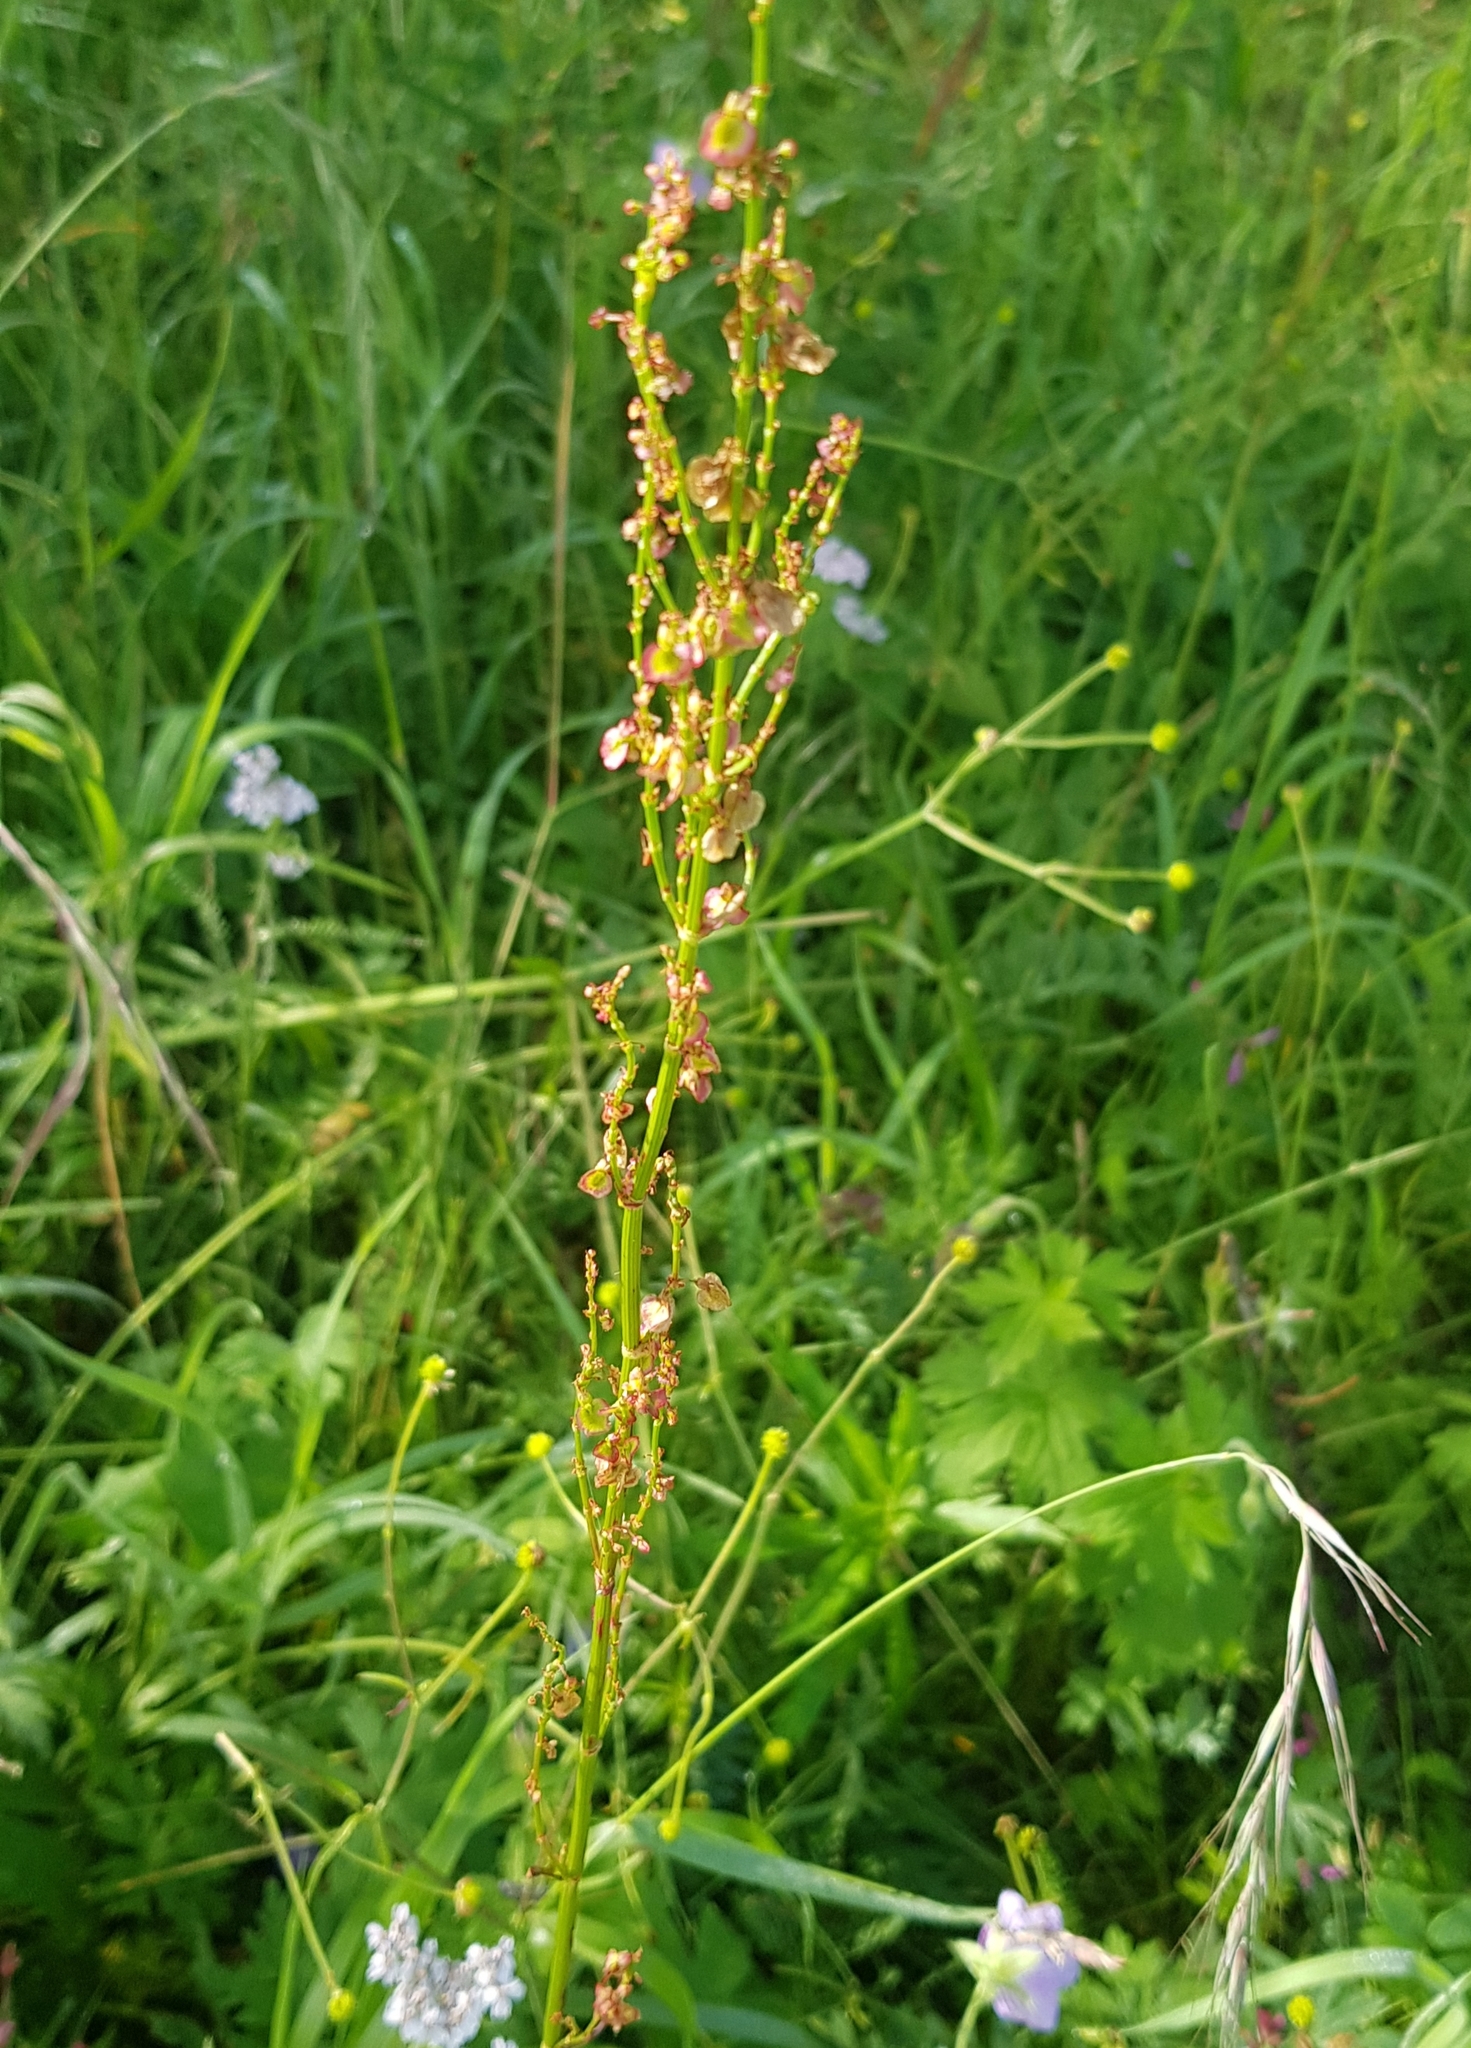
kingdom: Plantae
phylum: Tracheophyta
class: Magnoliopsida
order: Caryophyllales
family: Polygonaceae
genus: Rumex
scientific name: Rumex acetosa
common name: Garden sorrel
